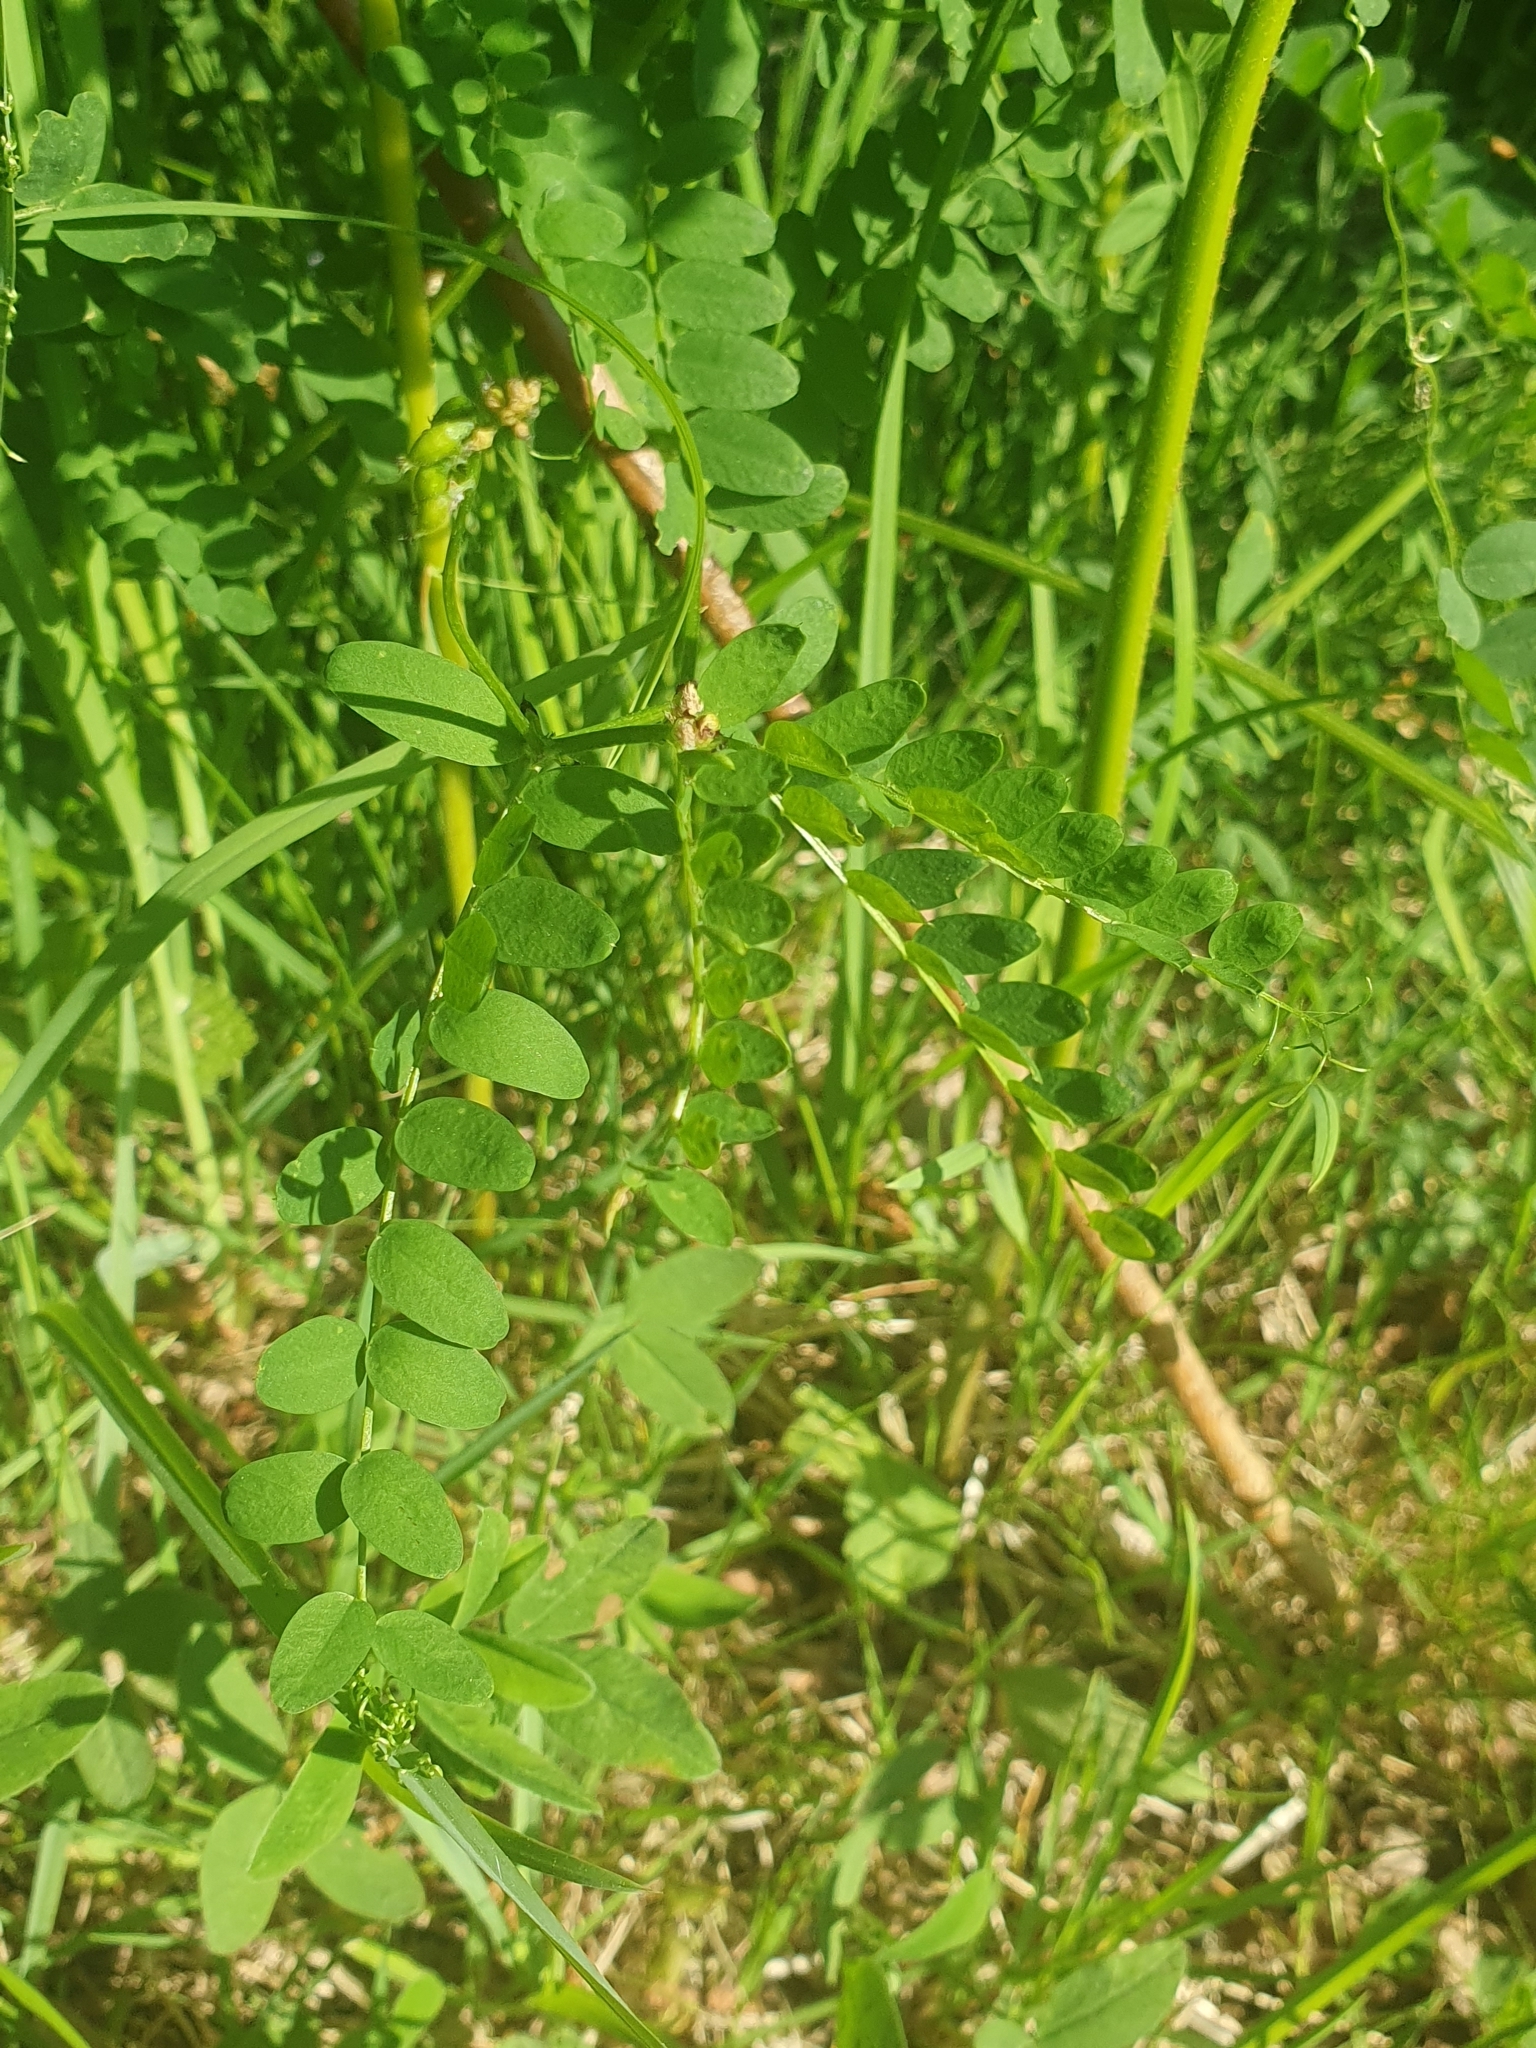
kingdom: Plantae
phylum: Tracheophyta
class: Magnoliopsida
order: Fabales
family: Fabaceae
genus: Vicia
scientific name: Vicia sylvatica
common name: Wood vetch
